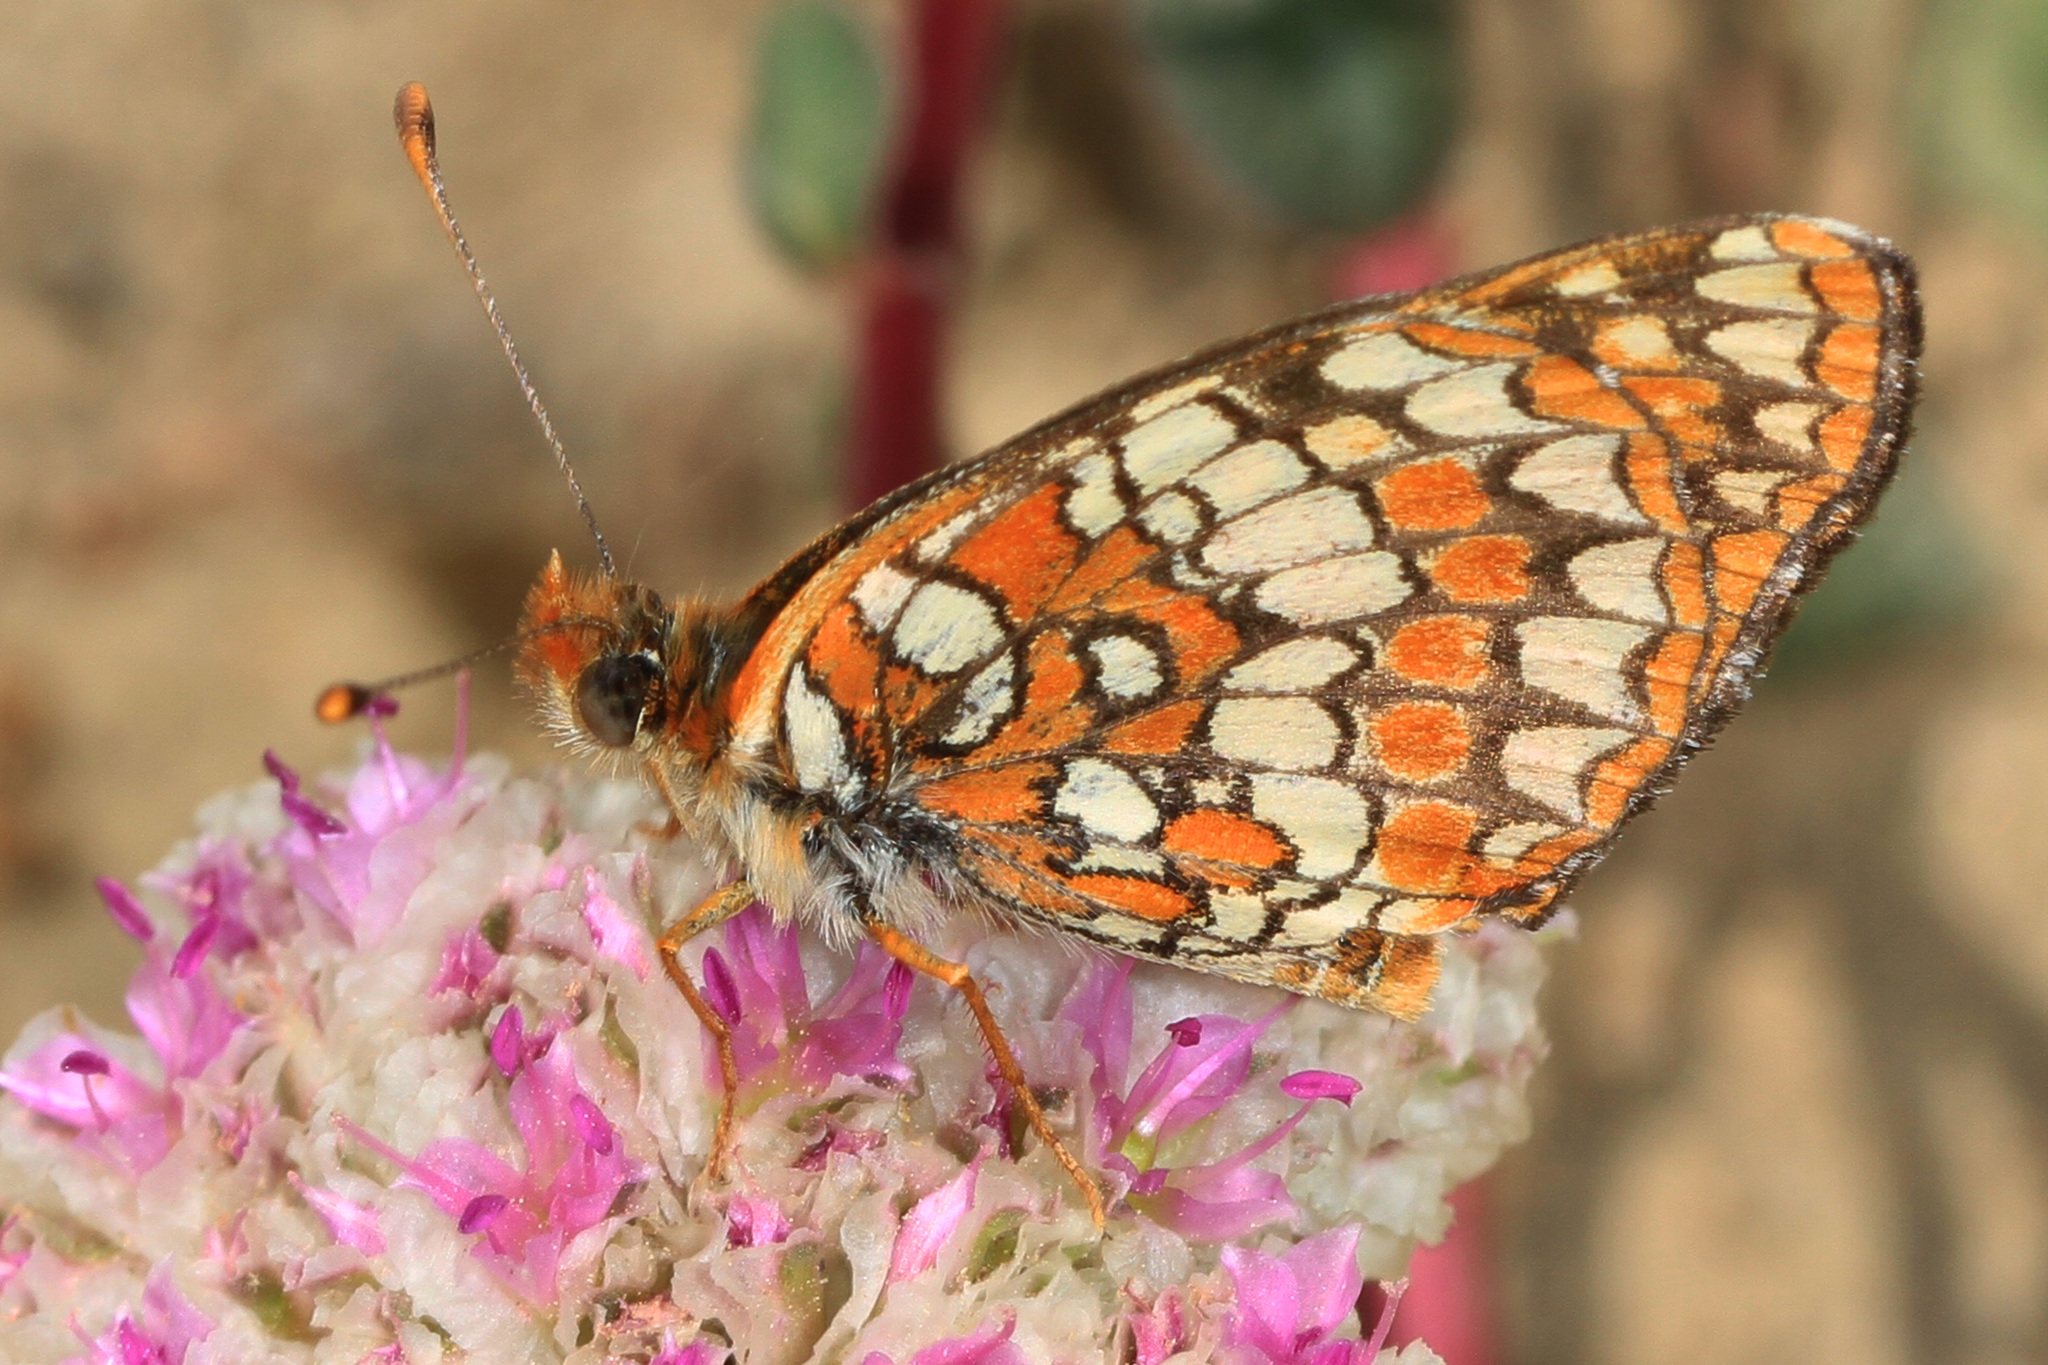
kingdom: Animalia
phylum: Arthropoda
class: Insecta
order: Lepidoptera
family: Nymphalidae
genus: Chlosyne
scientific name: Chlosyne palla
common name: Northern checkerspot
